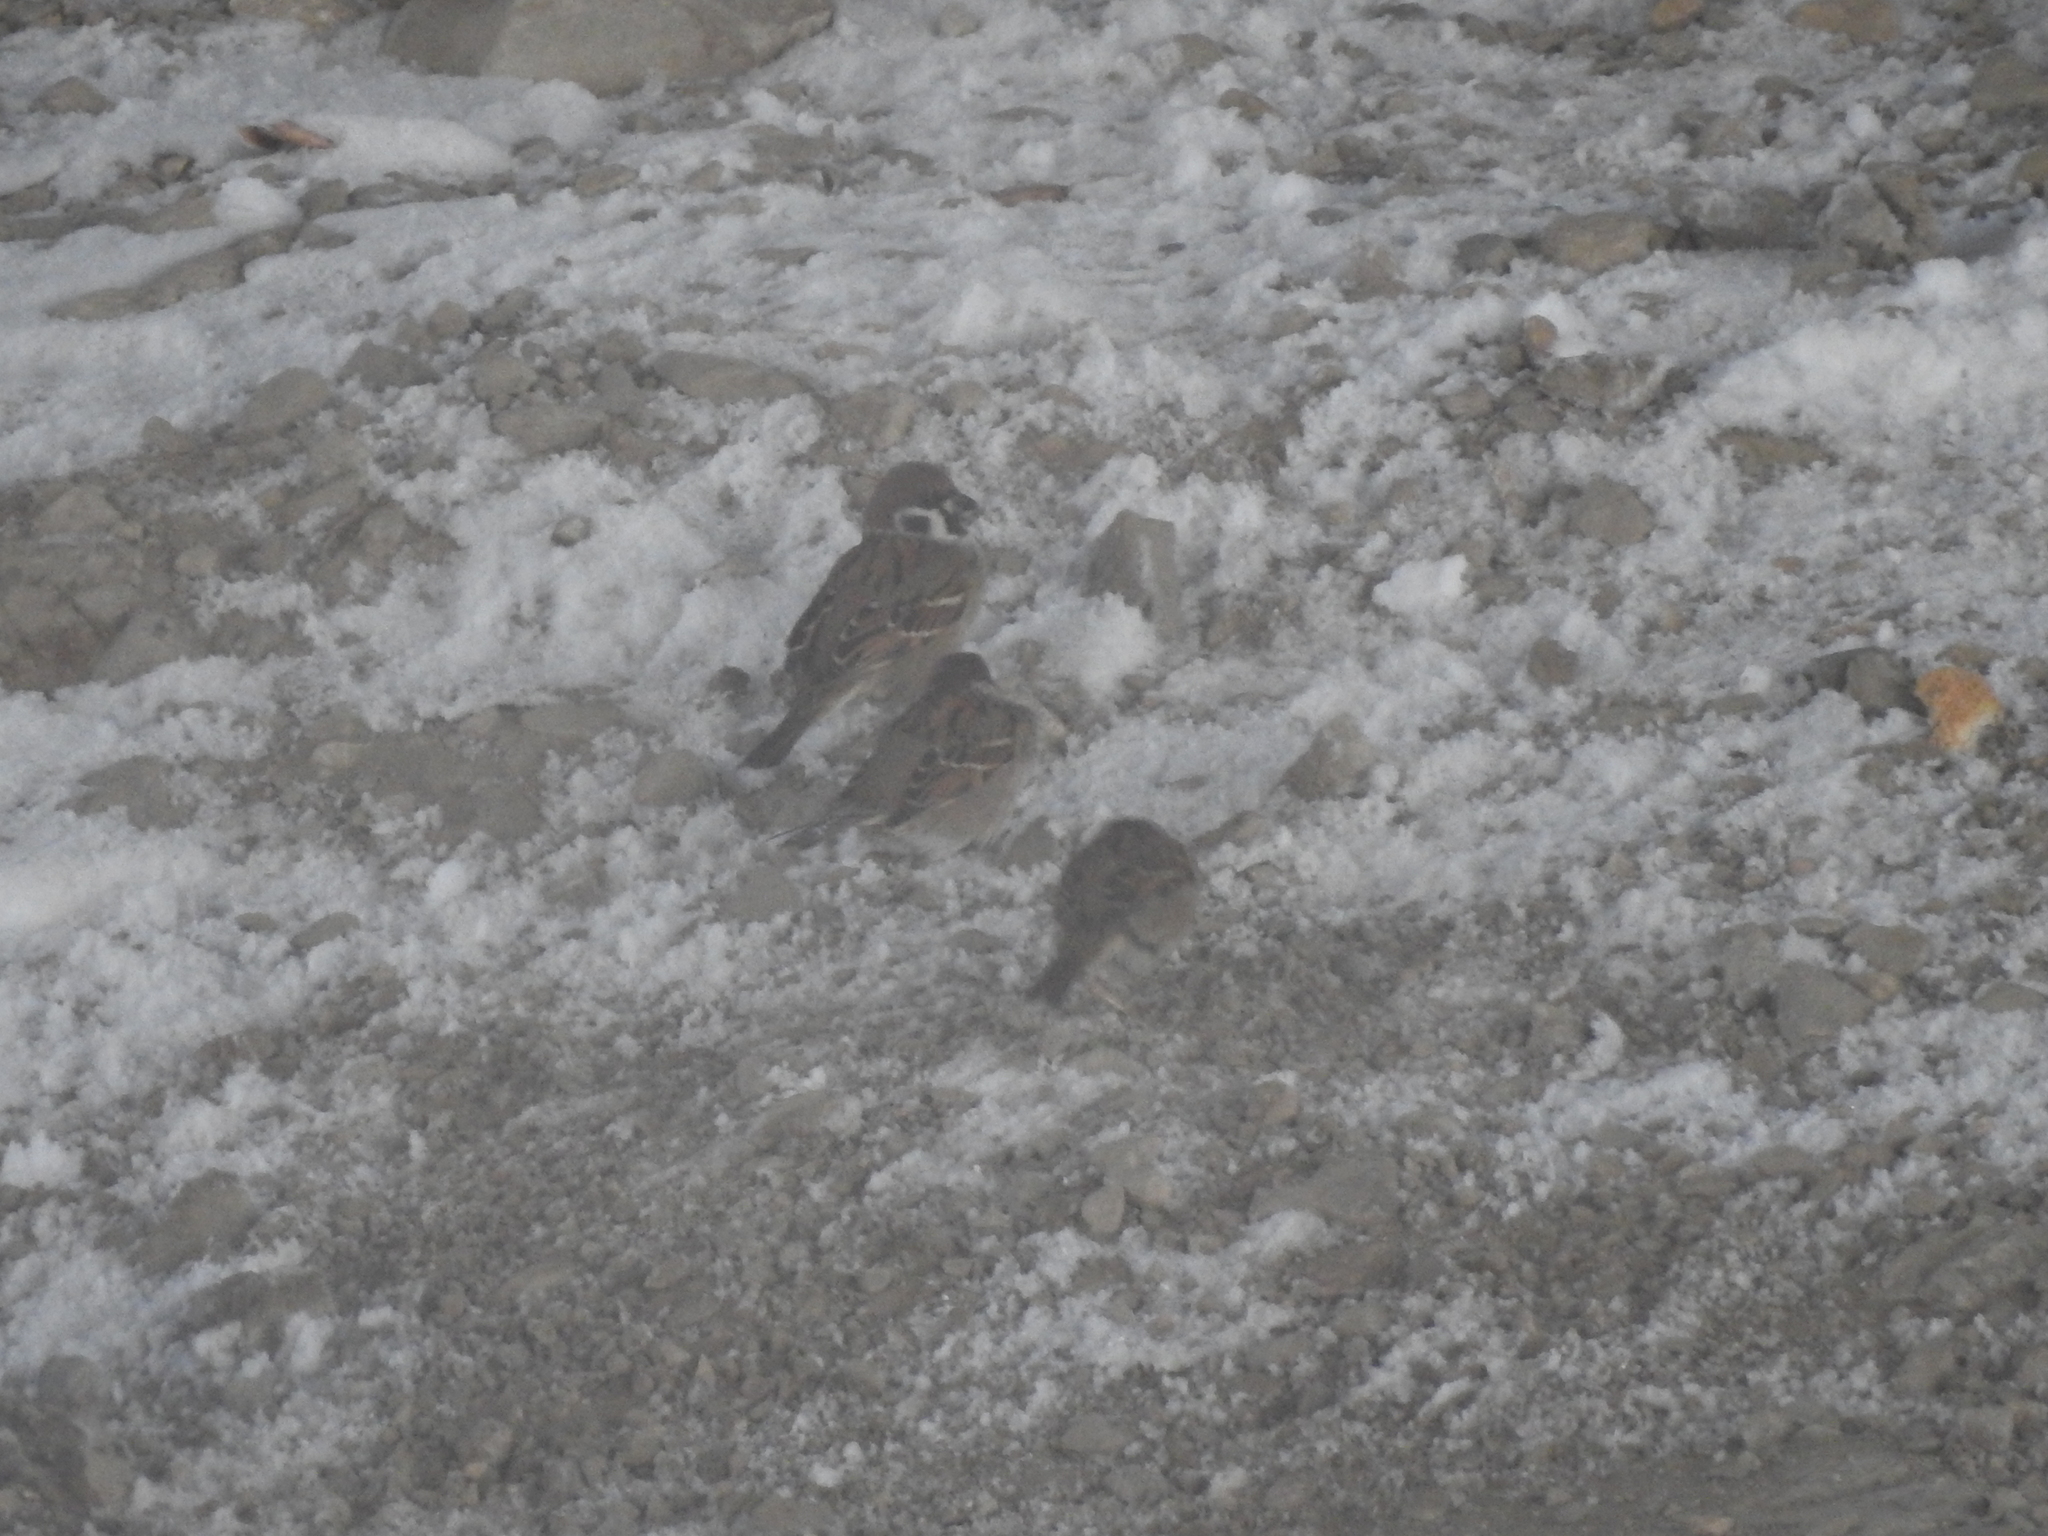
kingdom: Animalia
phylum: Chordata
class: Aves
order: Passeriformes
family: Passeridae
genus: Passer
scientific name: Passer montanus
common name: Eurasian tree sparrow
